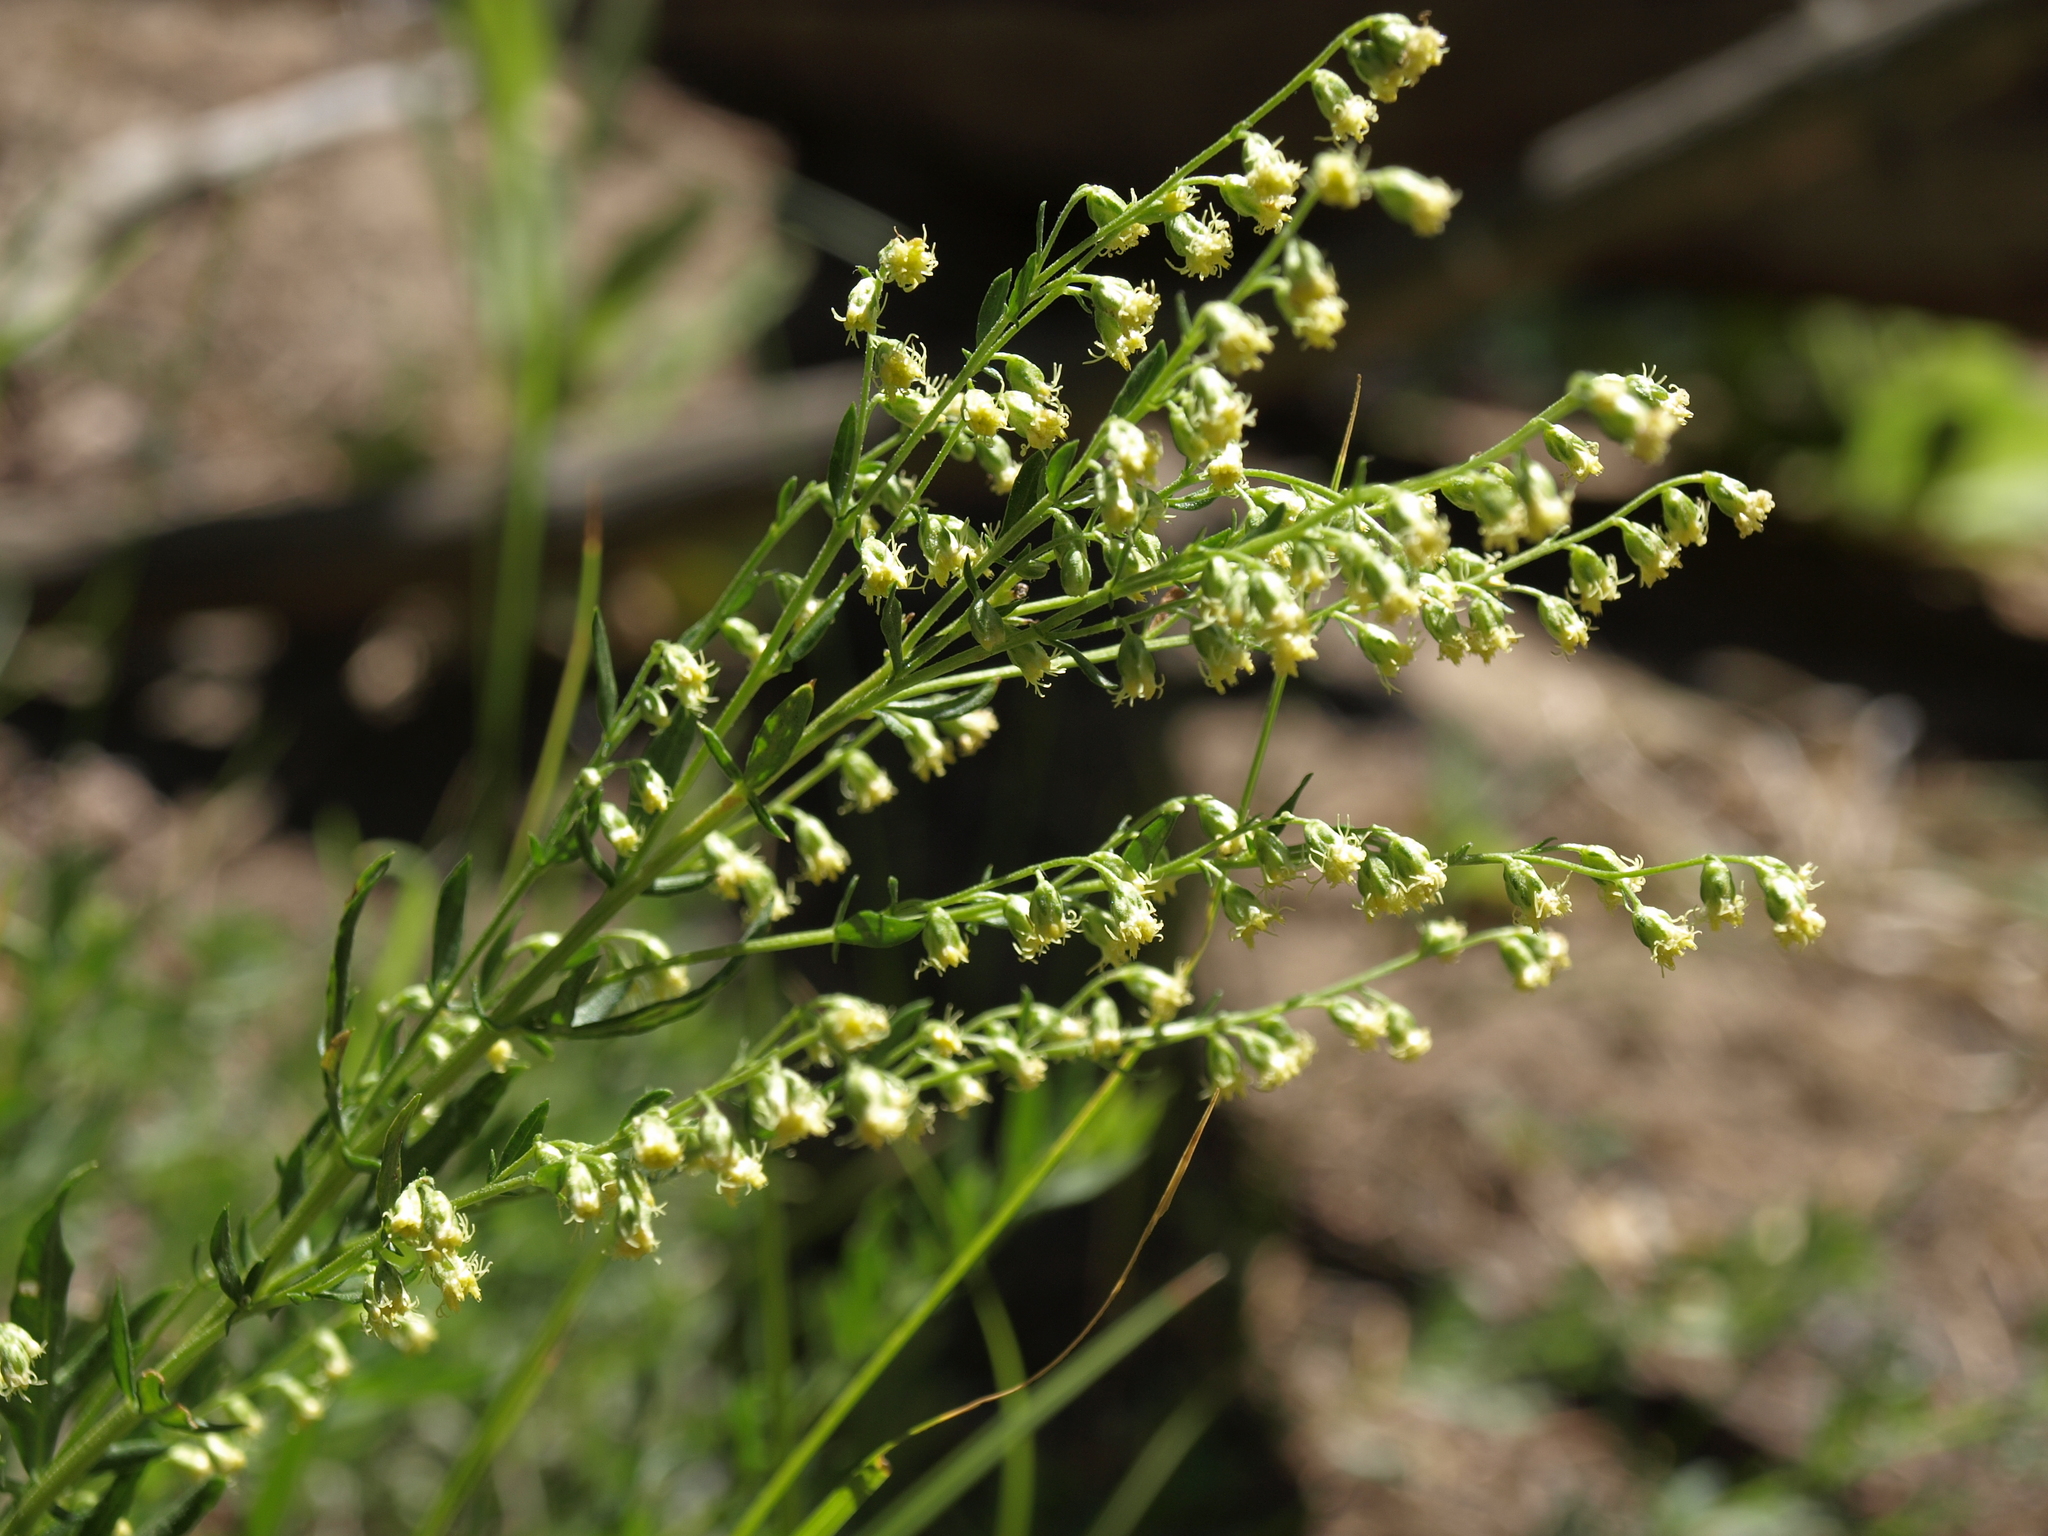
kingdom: Plantae
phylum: Tracheophyta
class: Magnoliopsida
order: Asterales
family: Asteraceae
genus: Artemisia
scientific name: Artemisia ludoviciana
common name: Western mugwort
